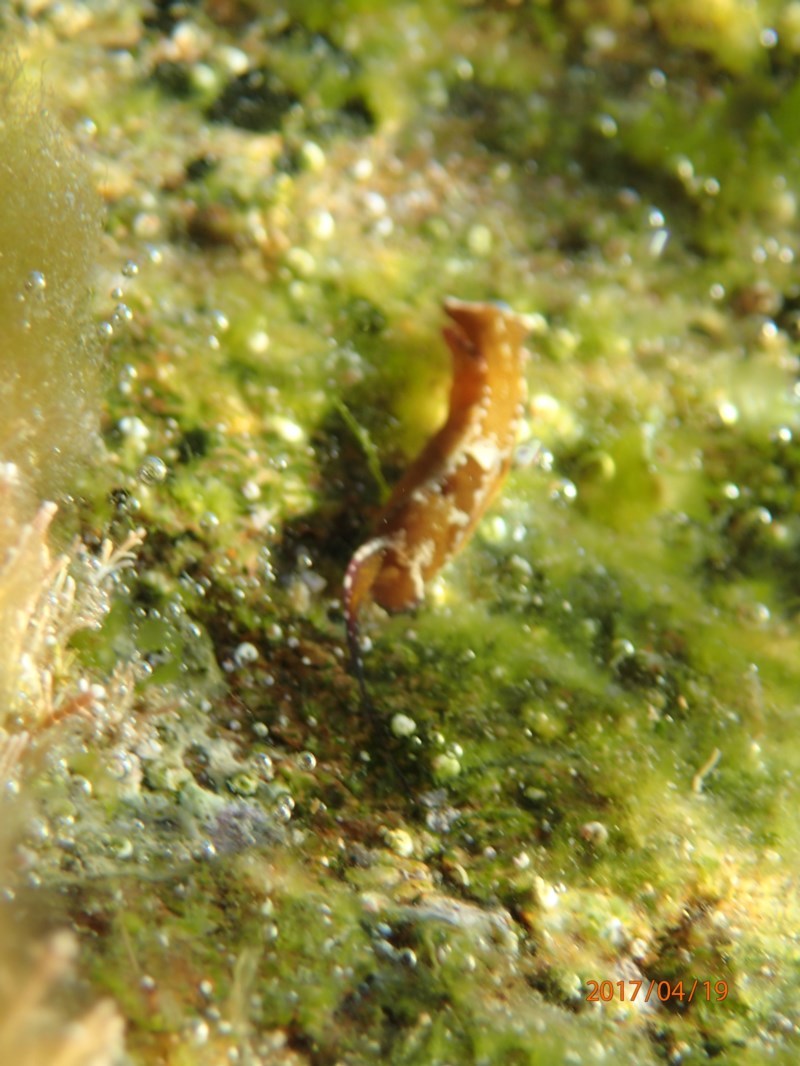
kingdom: Animalia
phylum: Mollusca
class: Gastropoda
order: Cephalaspidea
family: Aglajidae
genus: Biuve
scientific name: Biuve fulvipunctata
